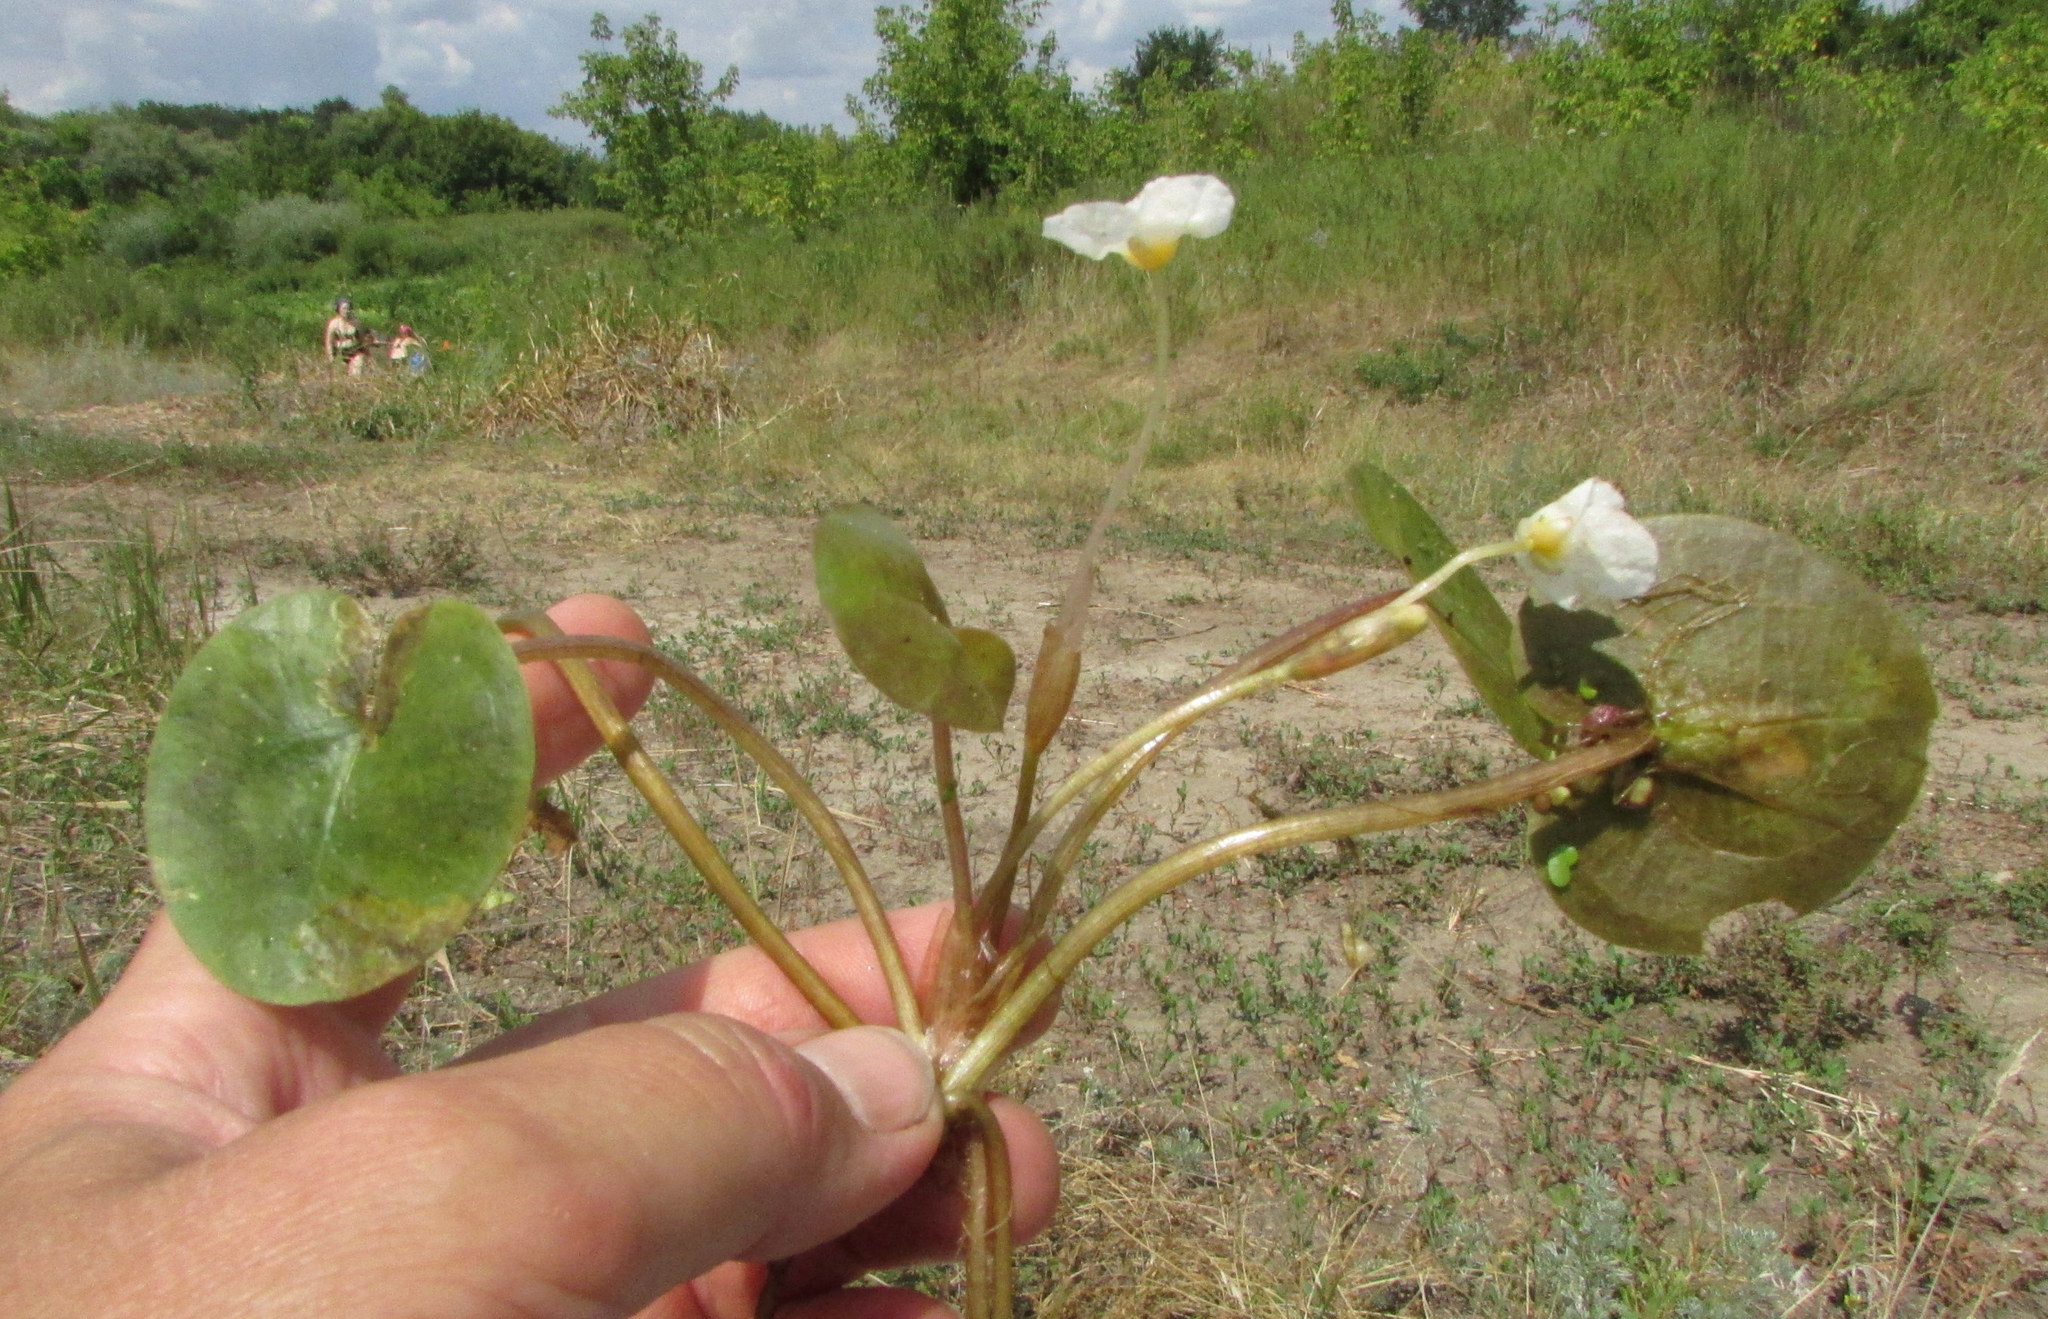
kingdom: Plantae
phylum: Tracheophyta
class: Liliopsida
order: Alismatales
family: Hydrocharitaceae
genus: Hydrocharis
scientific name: Hydrocharis morsus-ranae
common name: Frogbit
